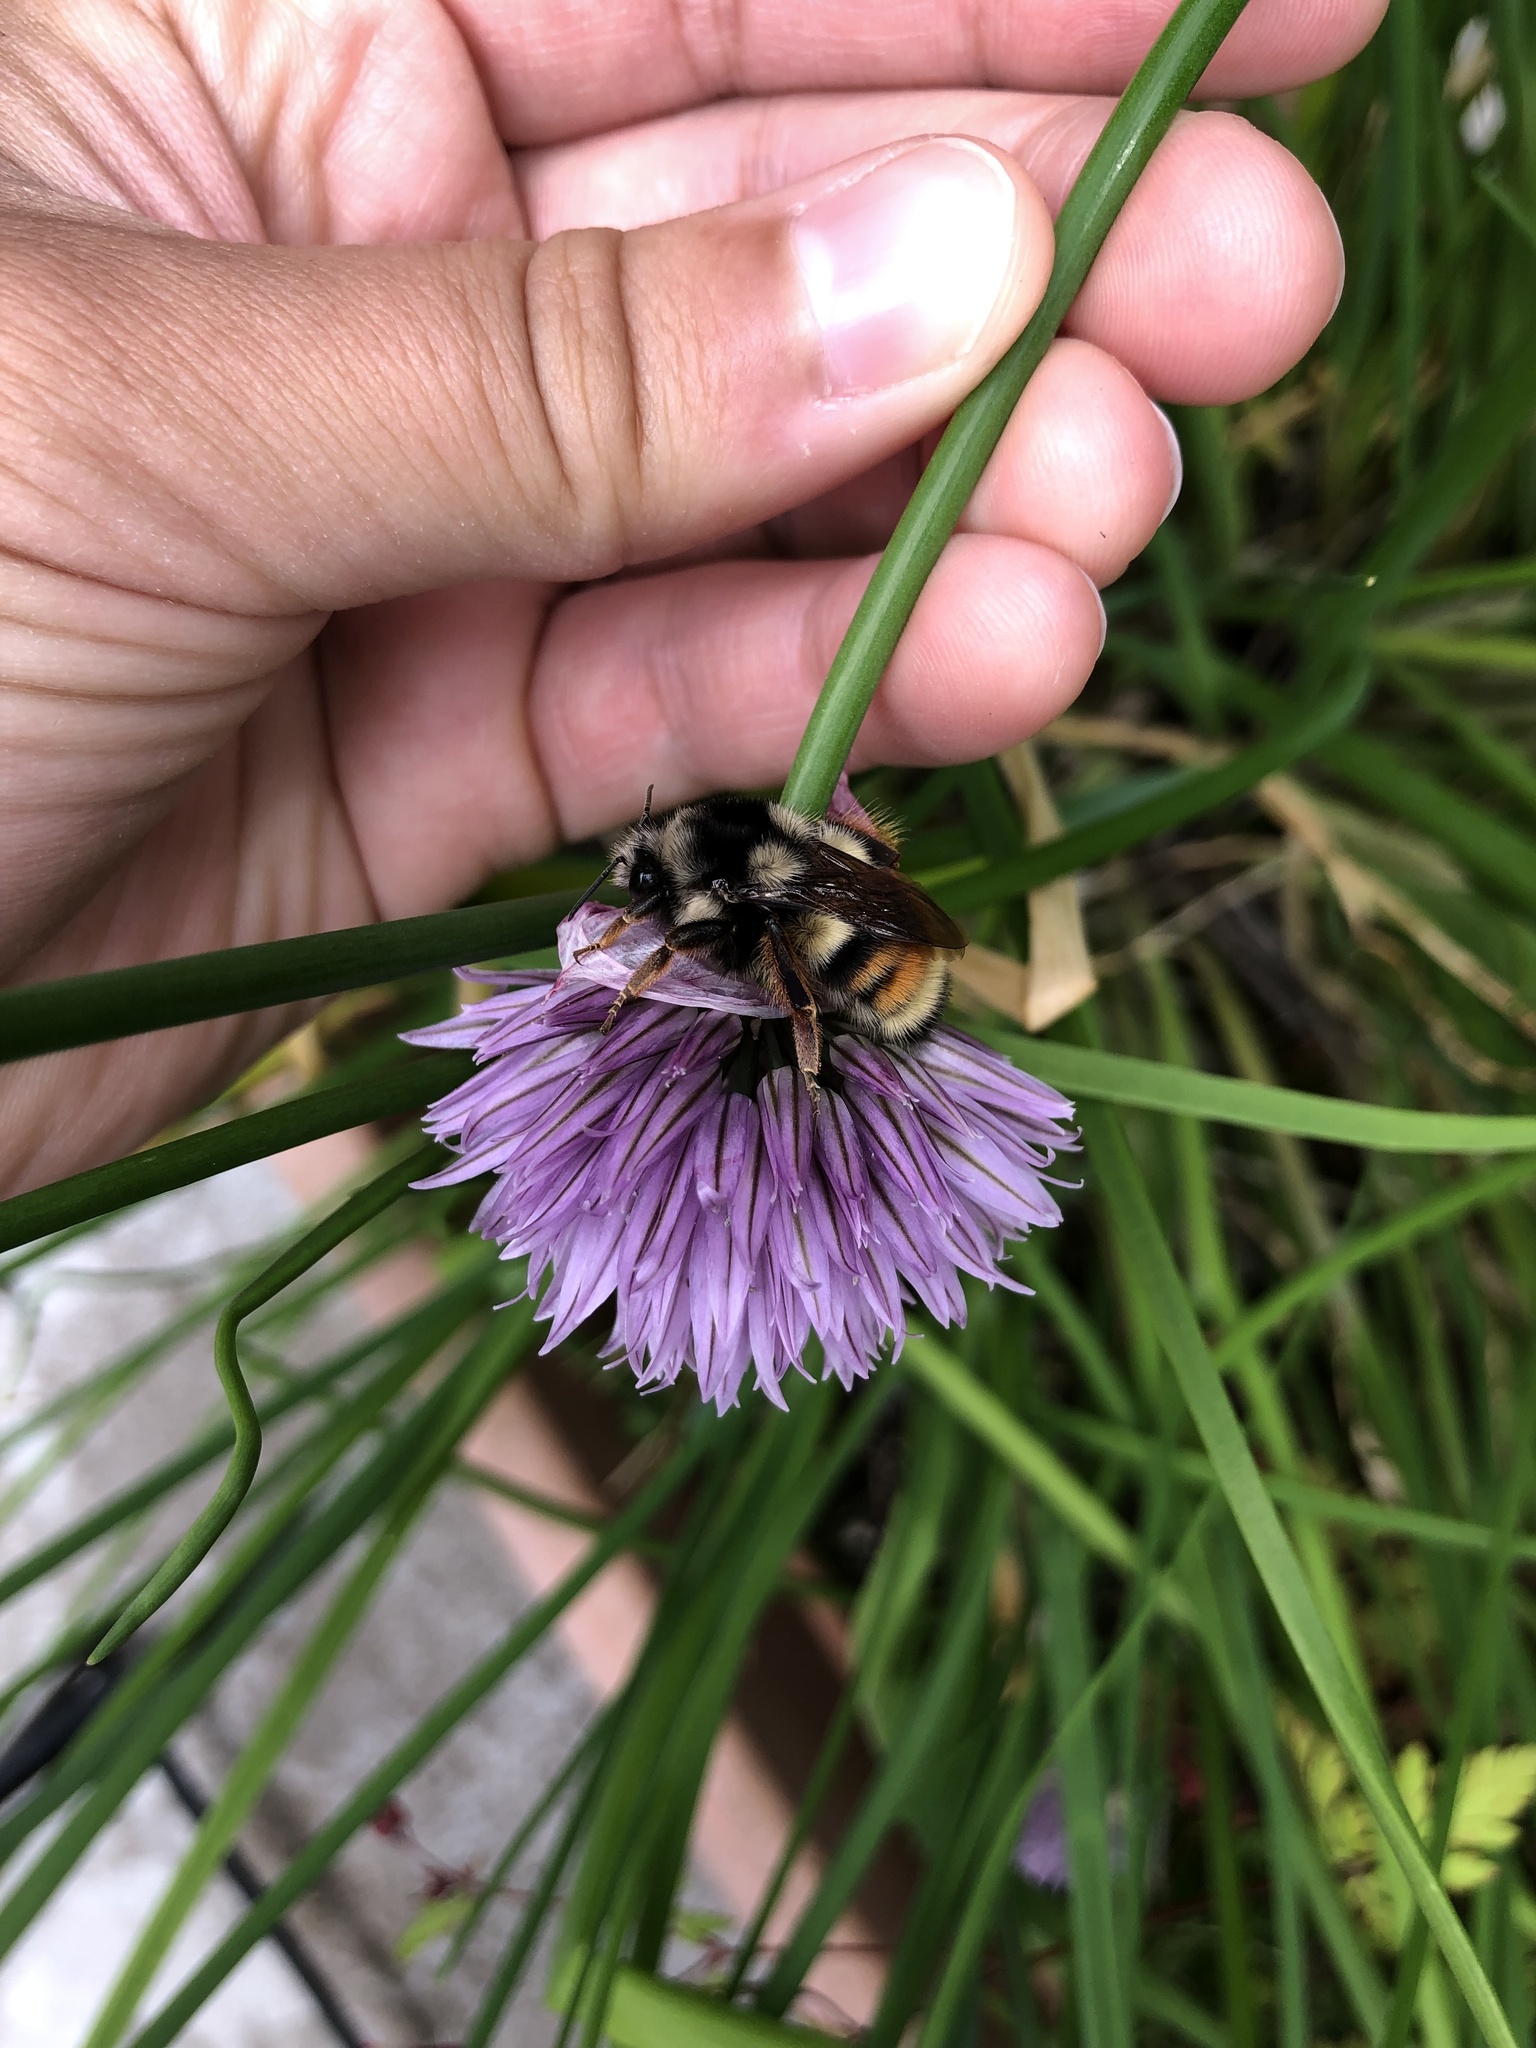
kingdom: Animalia
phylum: Arthropoda
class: Insecta
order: Hymenoptera
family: Apidae
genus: Bombus
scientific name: Bombus vancouverensis
